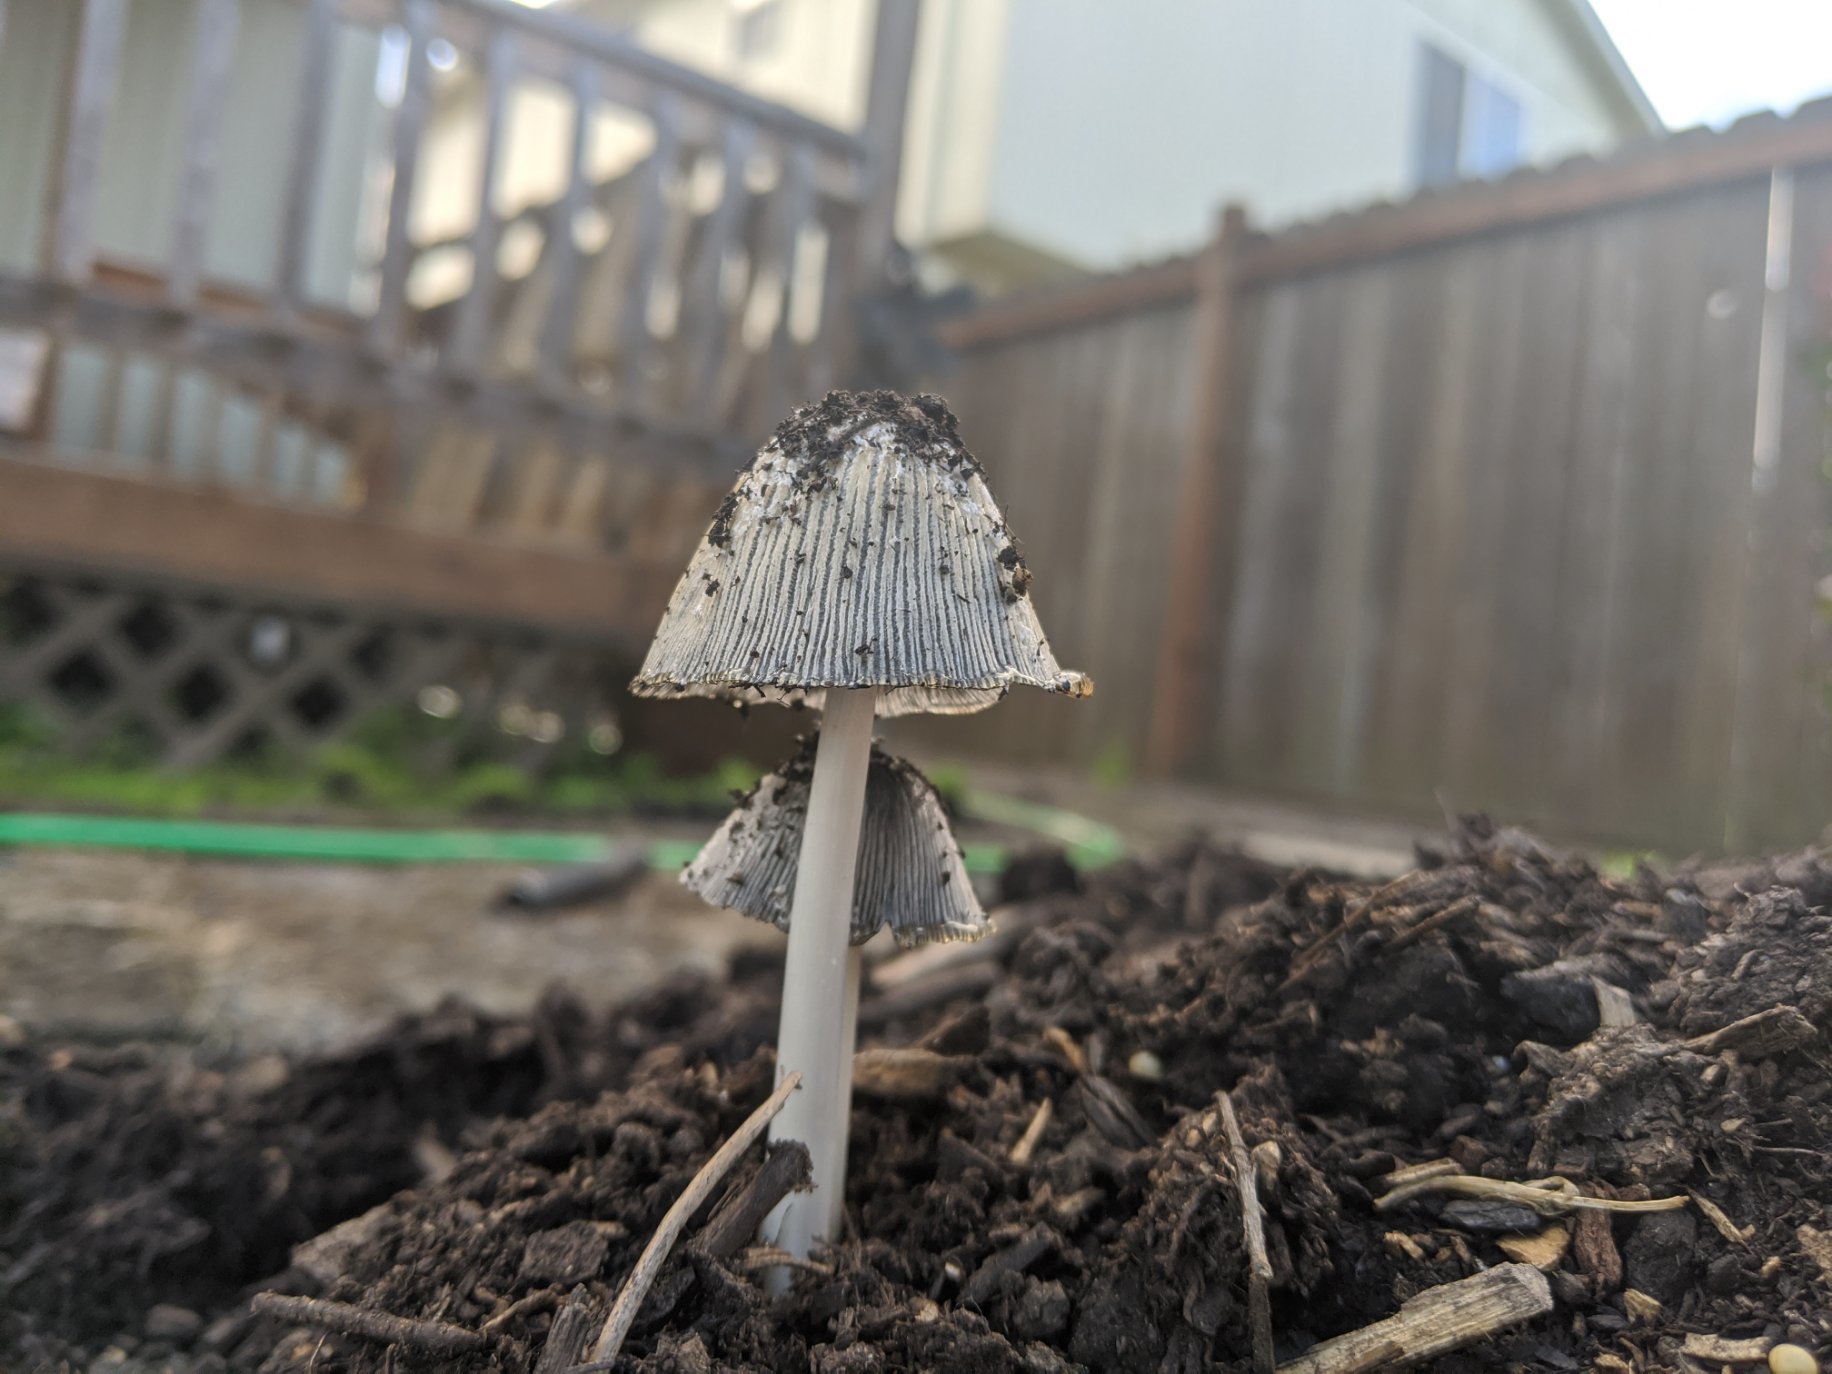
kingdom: Fungi
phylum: Basidiomycota
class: Agaricomycetes
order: Agaricales
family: Psathyrellaceae
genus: Coprinopsis
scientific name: Coprinopsis lagopus
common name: Hare'sfoot inkcap
